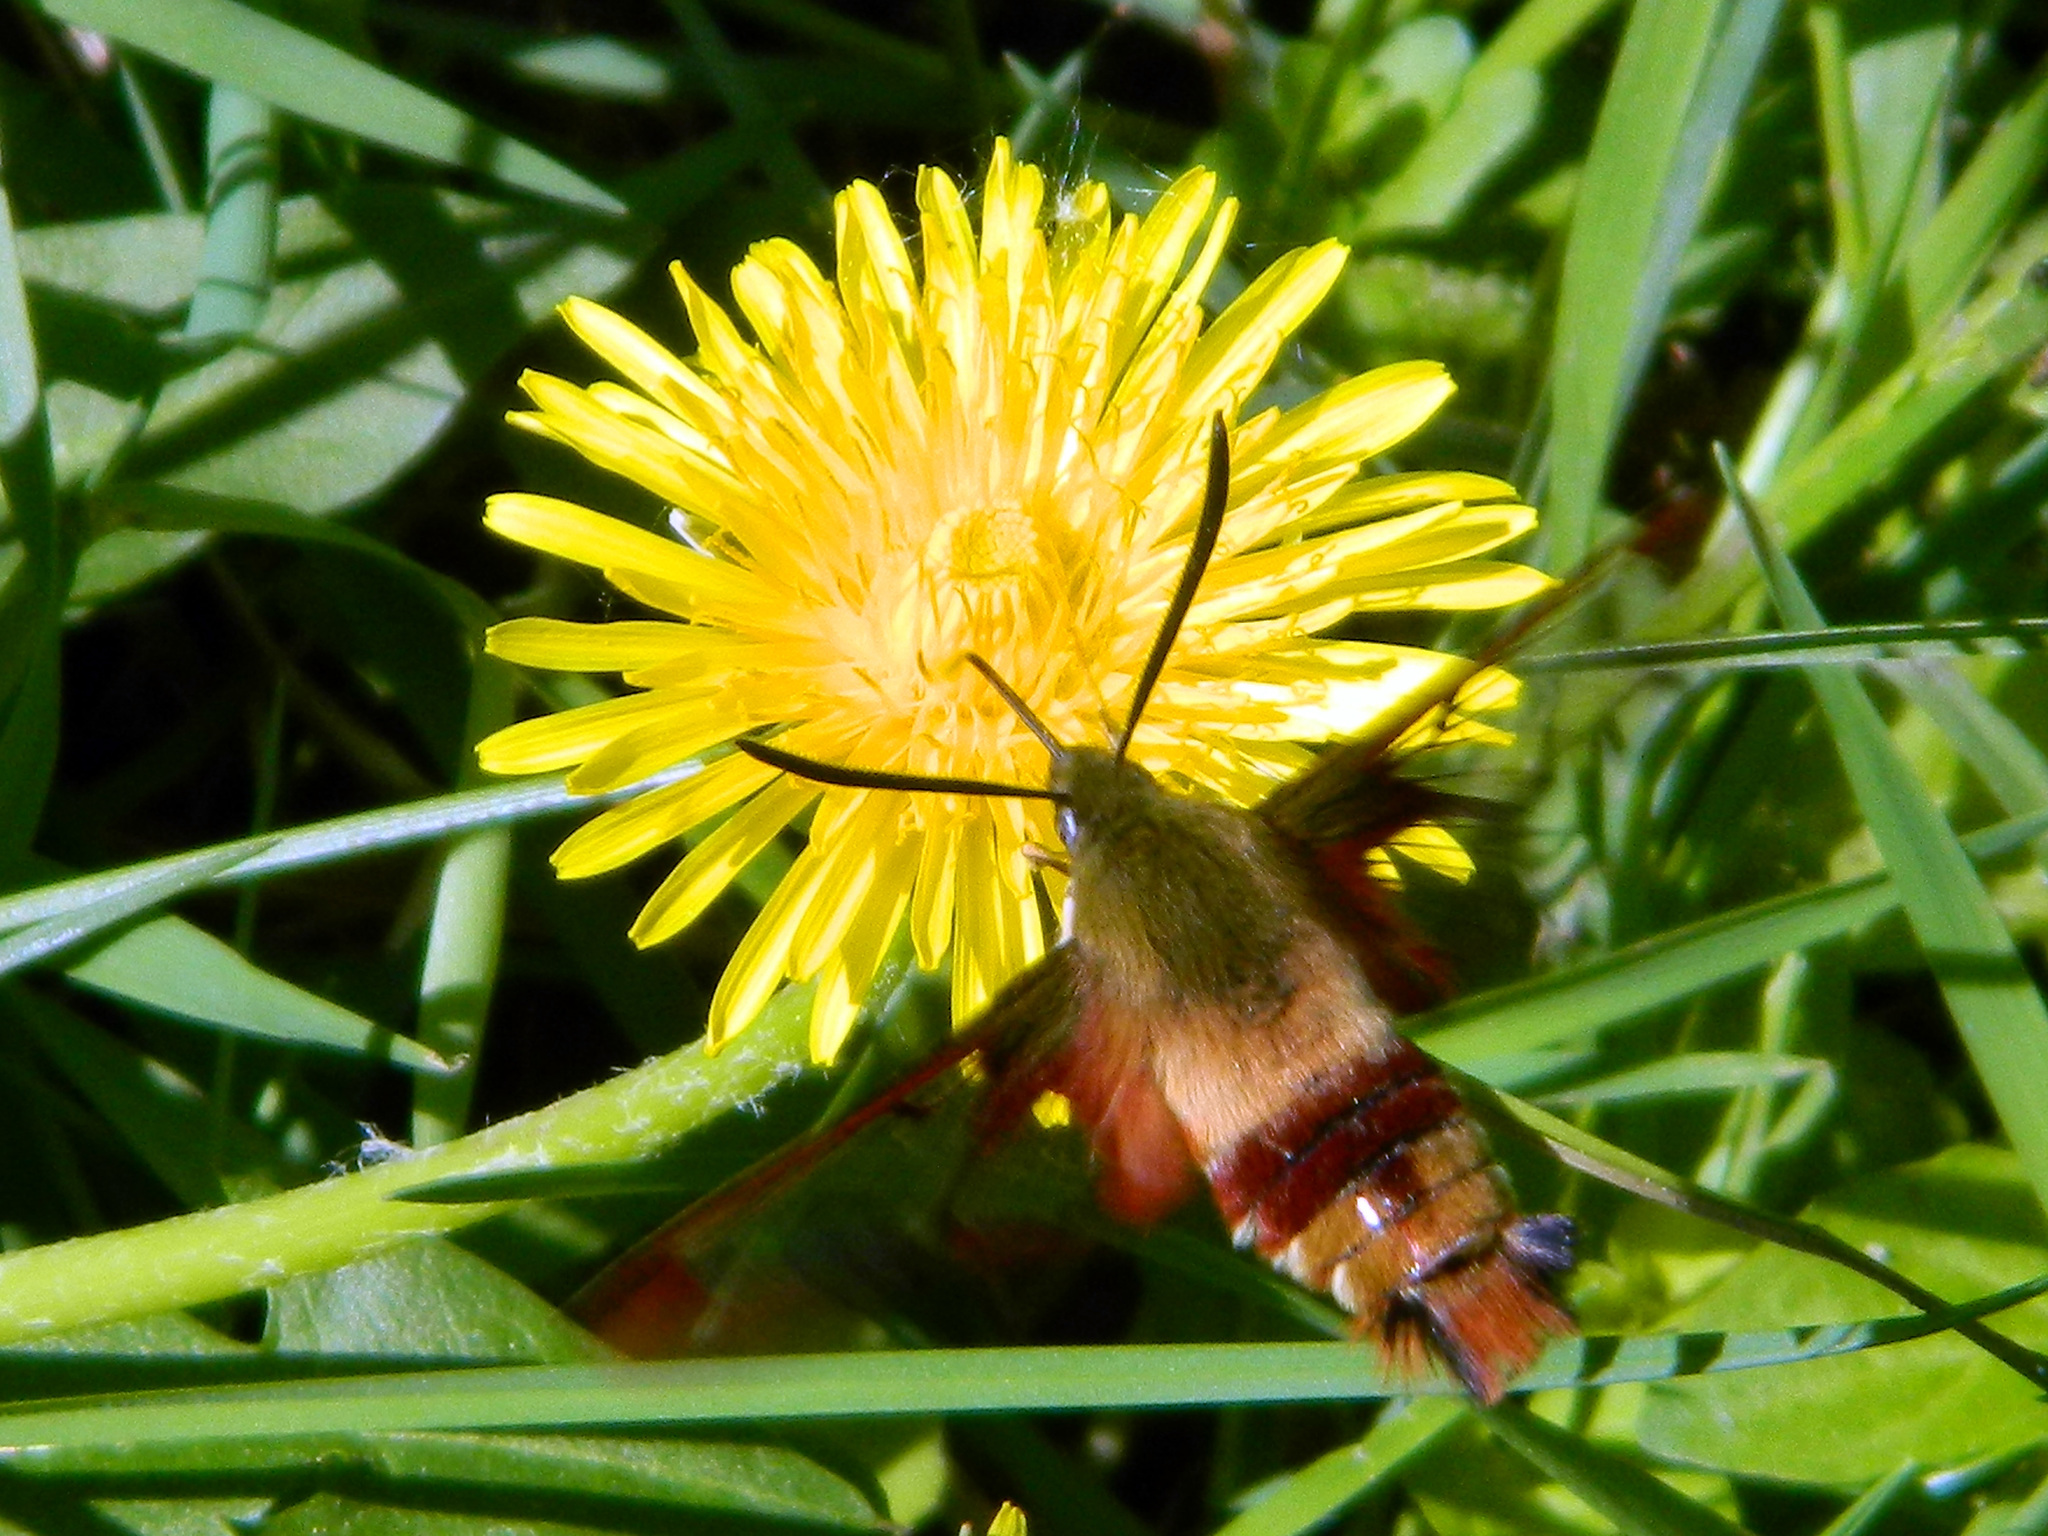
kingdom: Animalia
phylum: Arthropoda
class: Insecta
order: Lepidoptera
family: Sphingidae
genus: Hemaris
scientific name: Hemaris thysbe
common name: Common clear-wing
